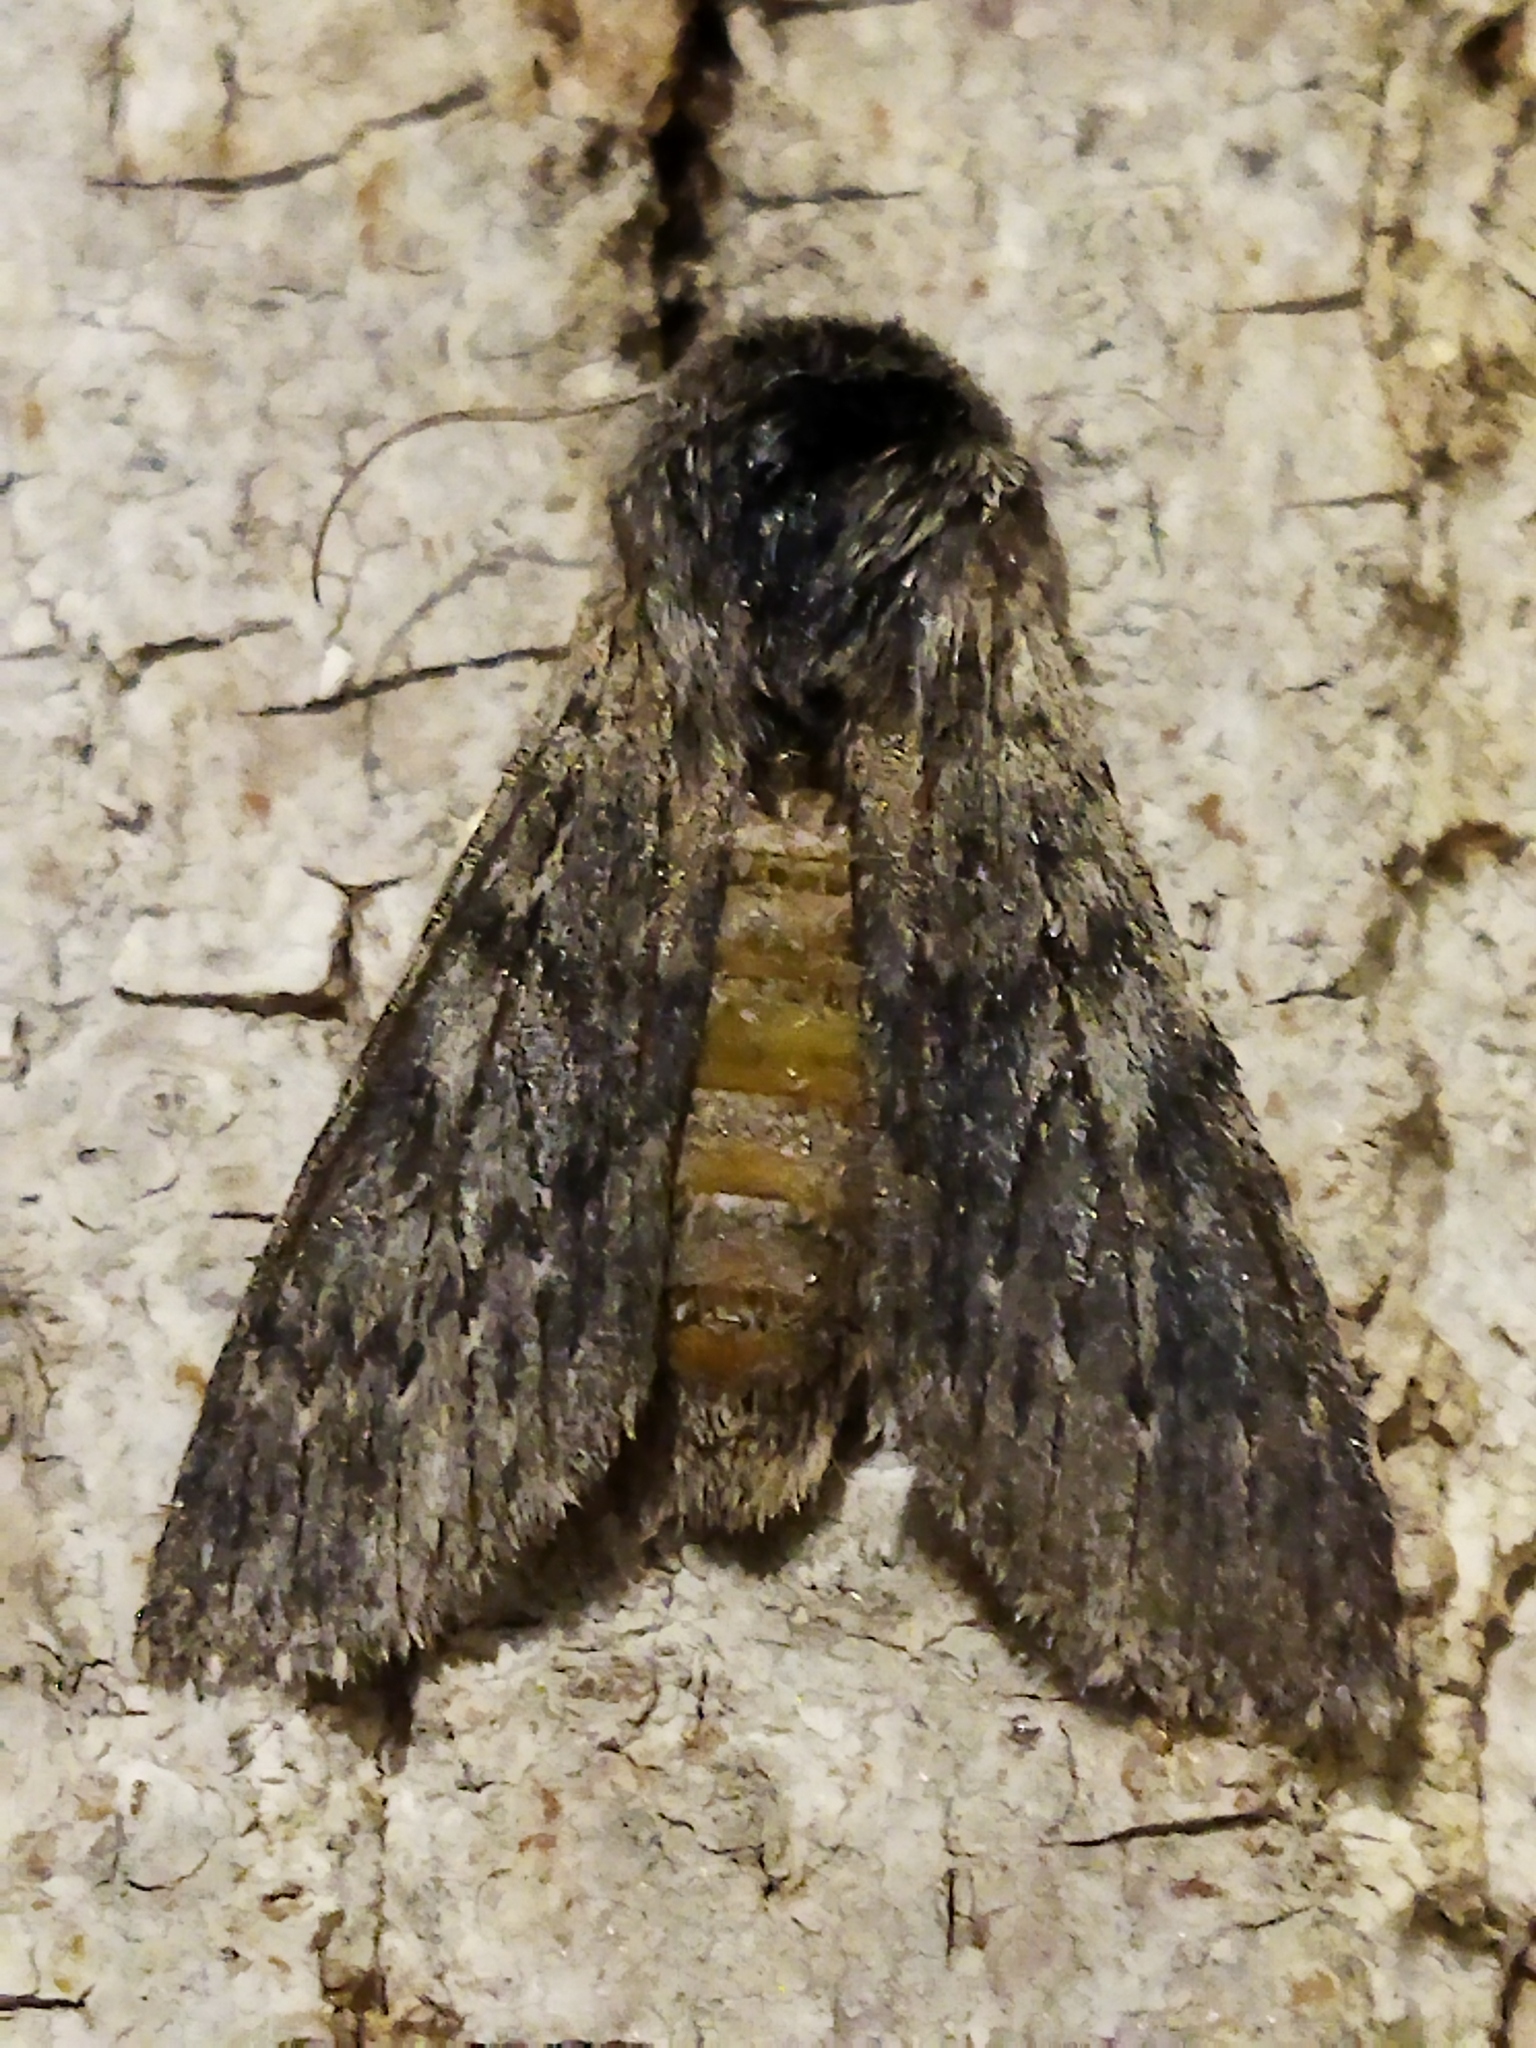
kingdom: Animalia
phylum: Arthropoda
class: Insecta
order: Lepidoptera
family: Notodontidae
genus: Dicranura
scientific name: Dicranura ulmi
